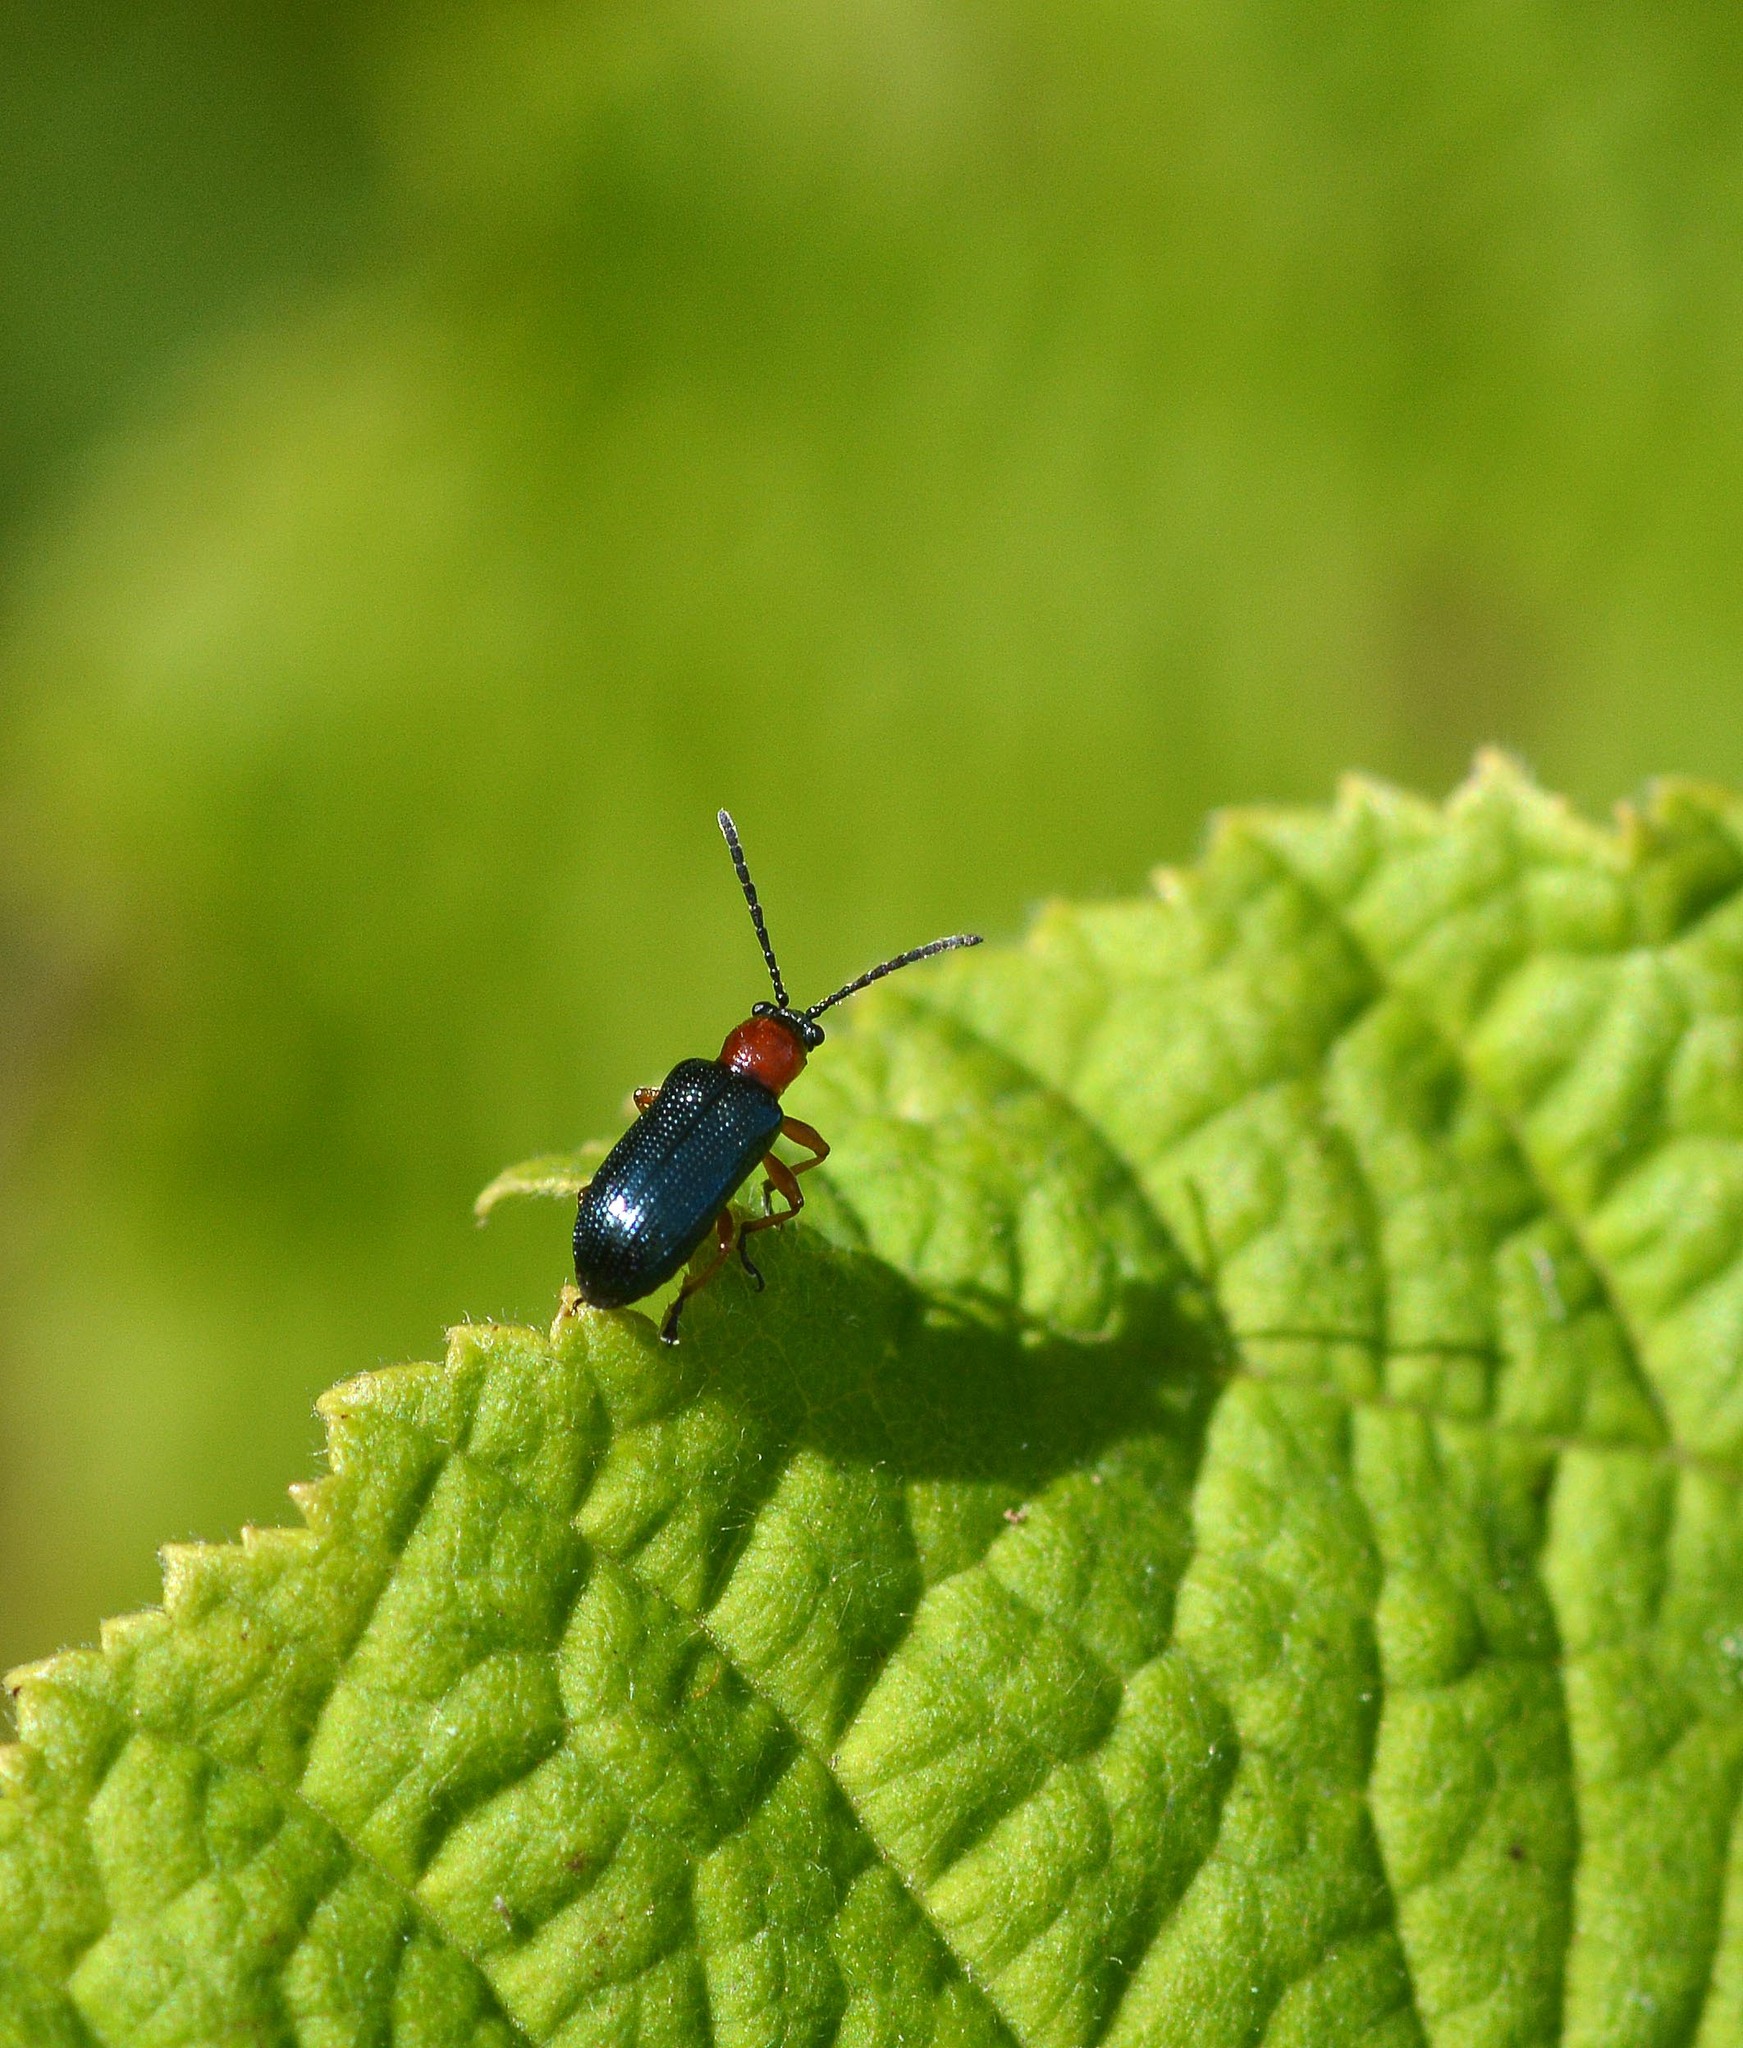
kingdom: Animalia
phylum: Arthropoda
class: Insecta
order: Coleoptera
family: Chrysomelidae
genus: Oulema
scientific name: Oulema
